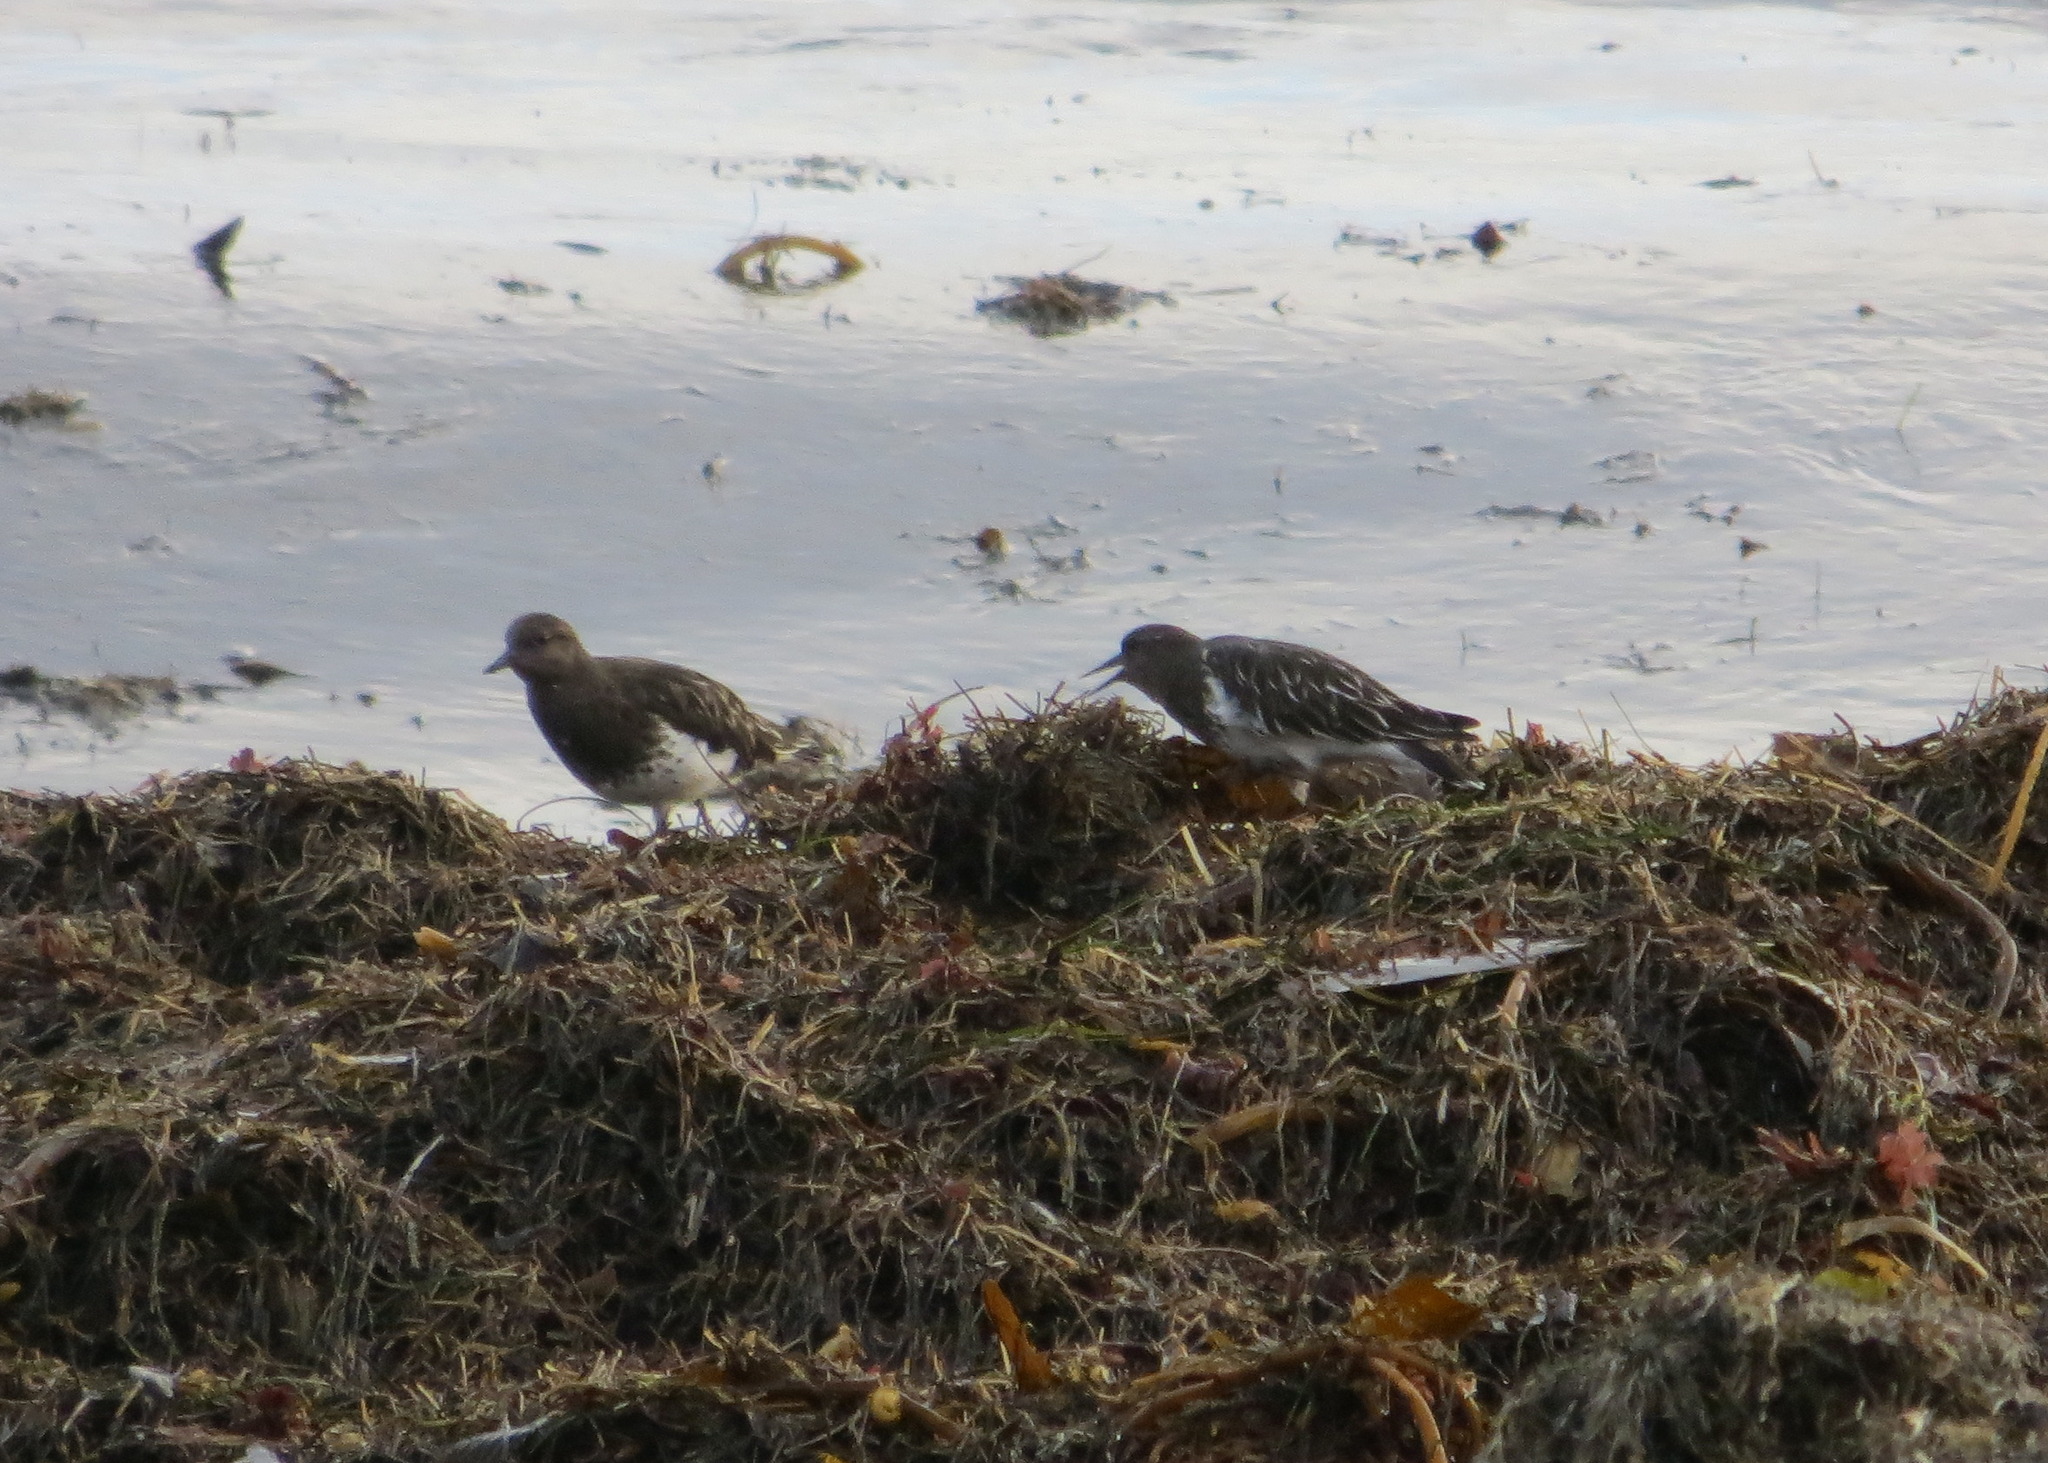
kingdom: Animalia
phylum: Chordata
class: Aves
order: Charadriiformes
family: Scolopacidae
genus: Arenaria
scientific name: Arenaria melanocephala
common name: Black turnstone
